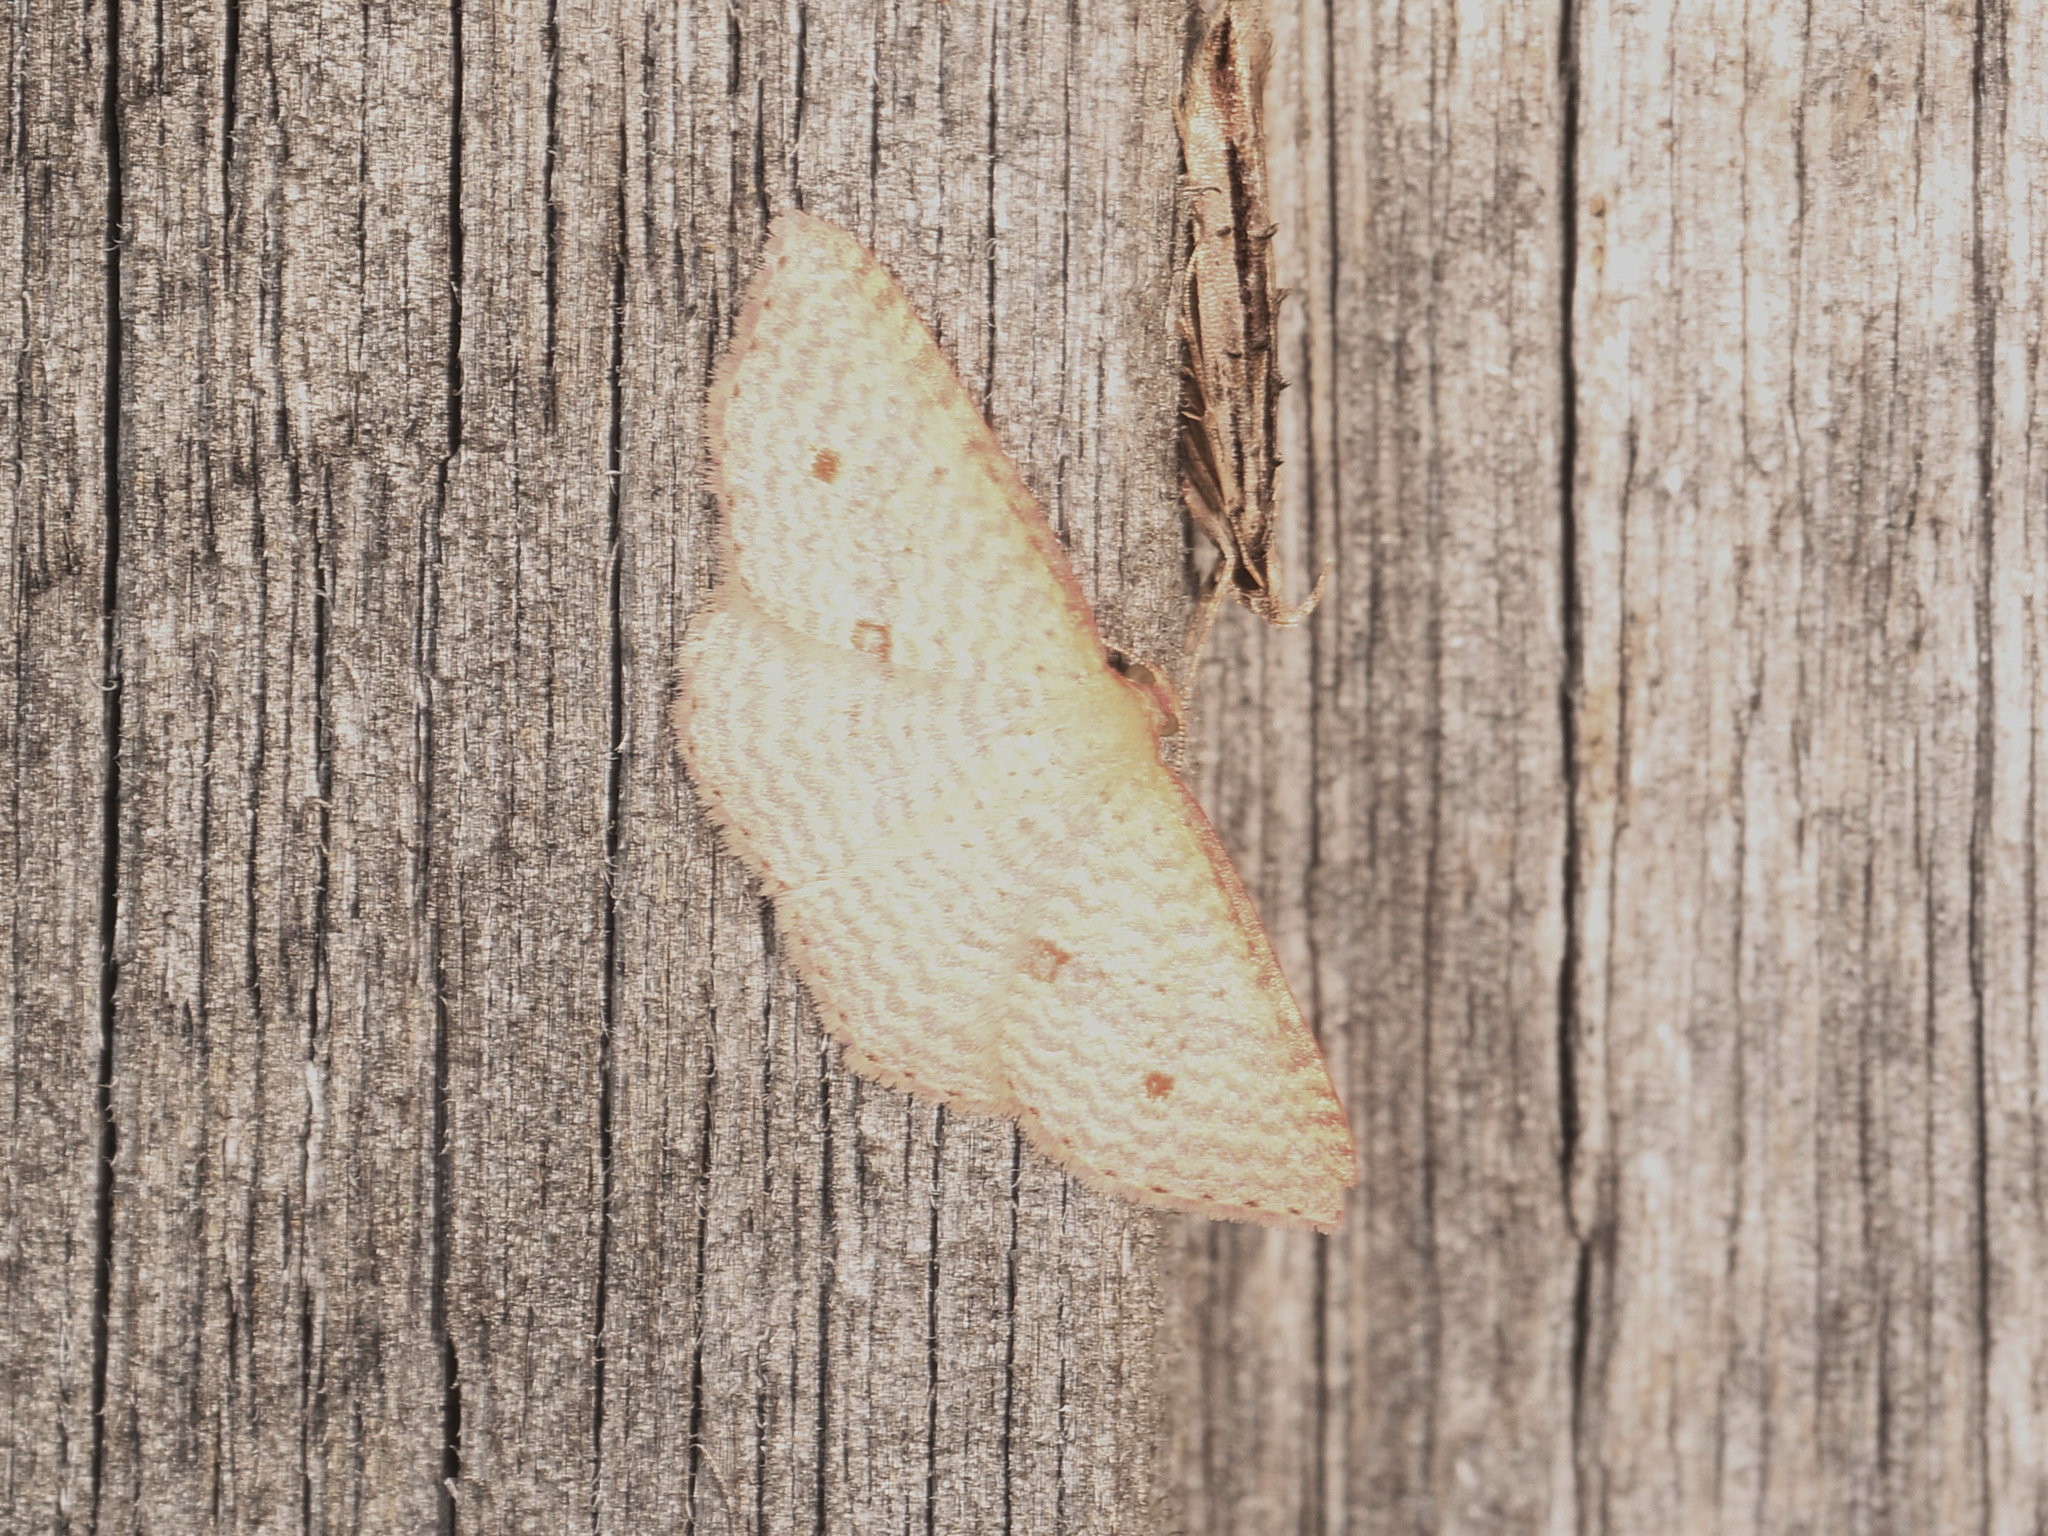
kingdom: Animalia
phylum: Arthropoda
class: Insecta
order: Lepidoptera
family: Geometridae
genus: Epicyme
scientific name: Epicyme rubropunctaria
